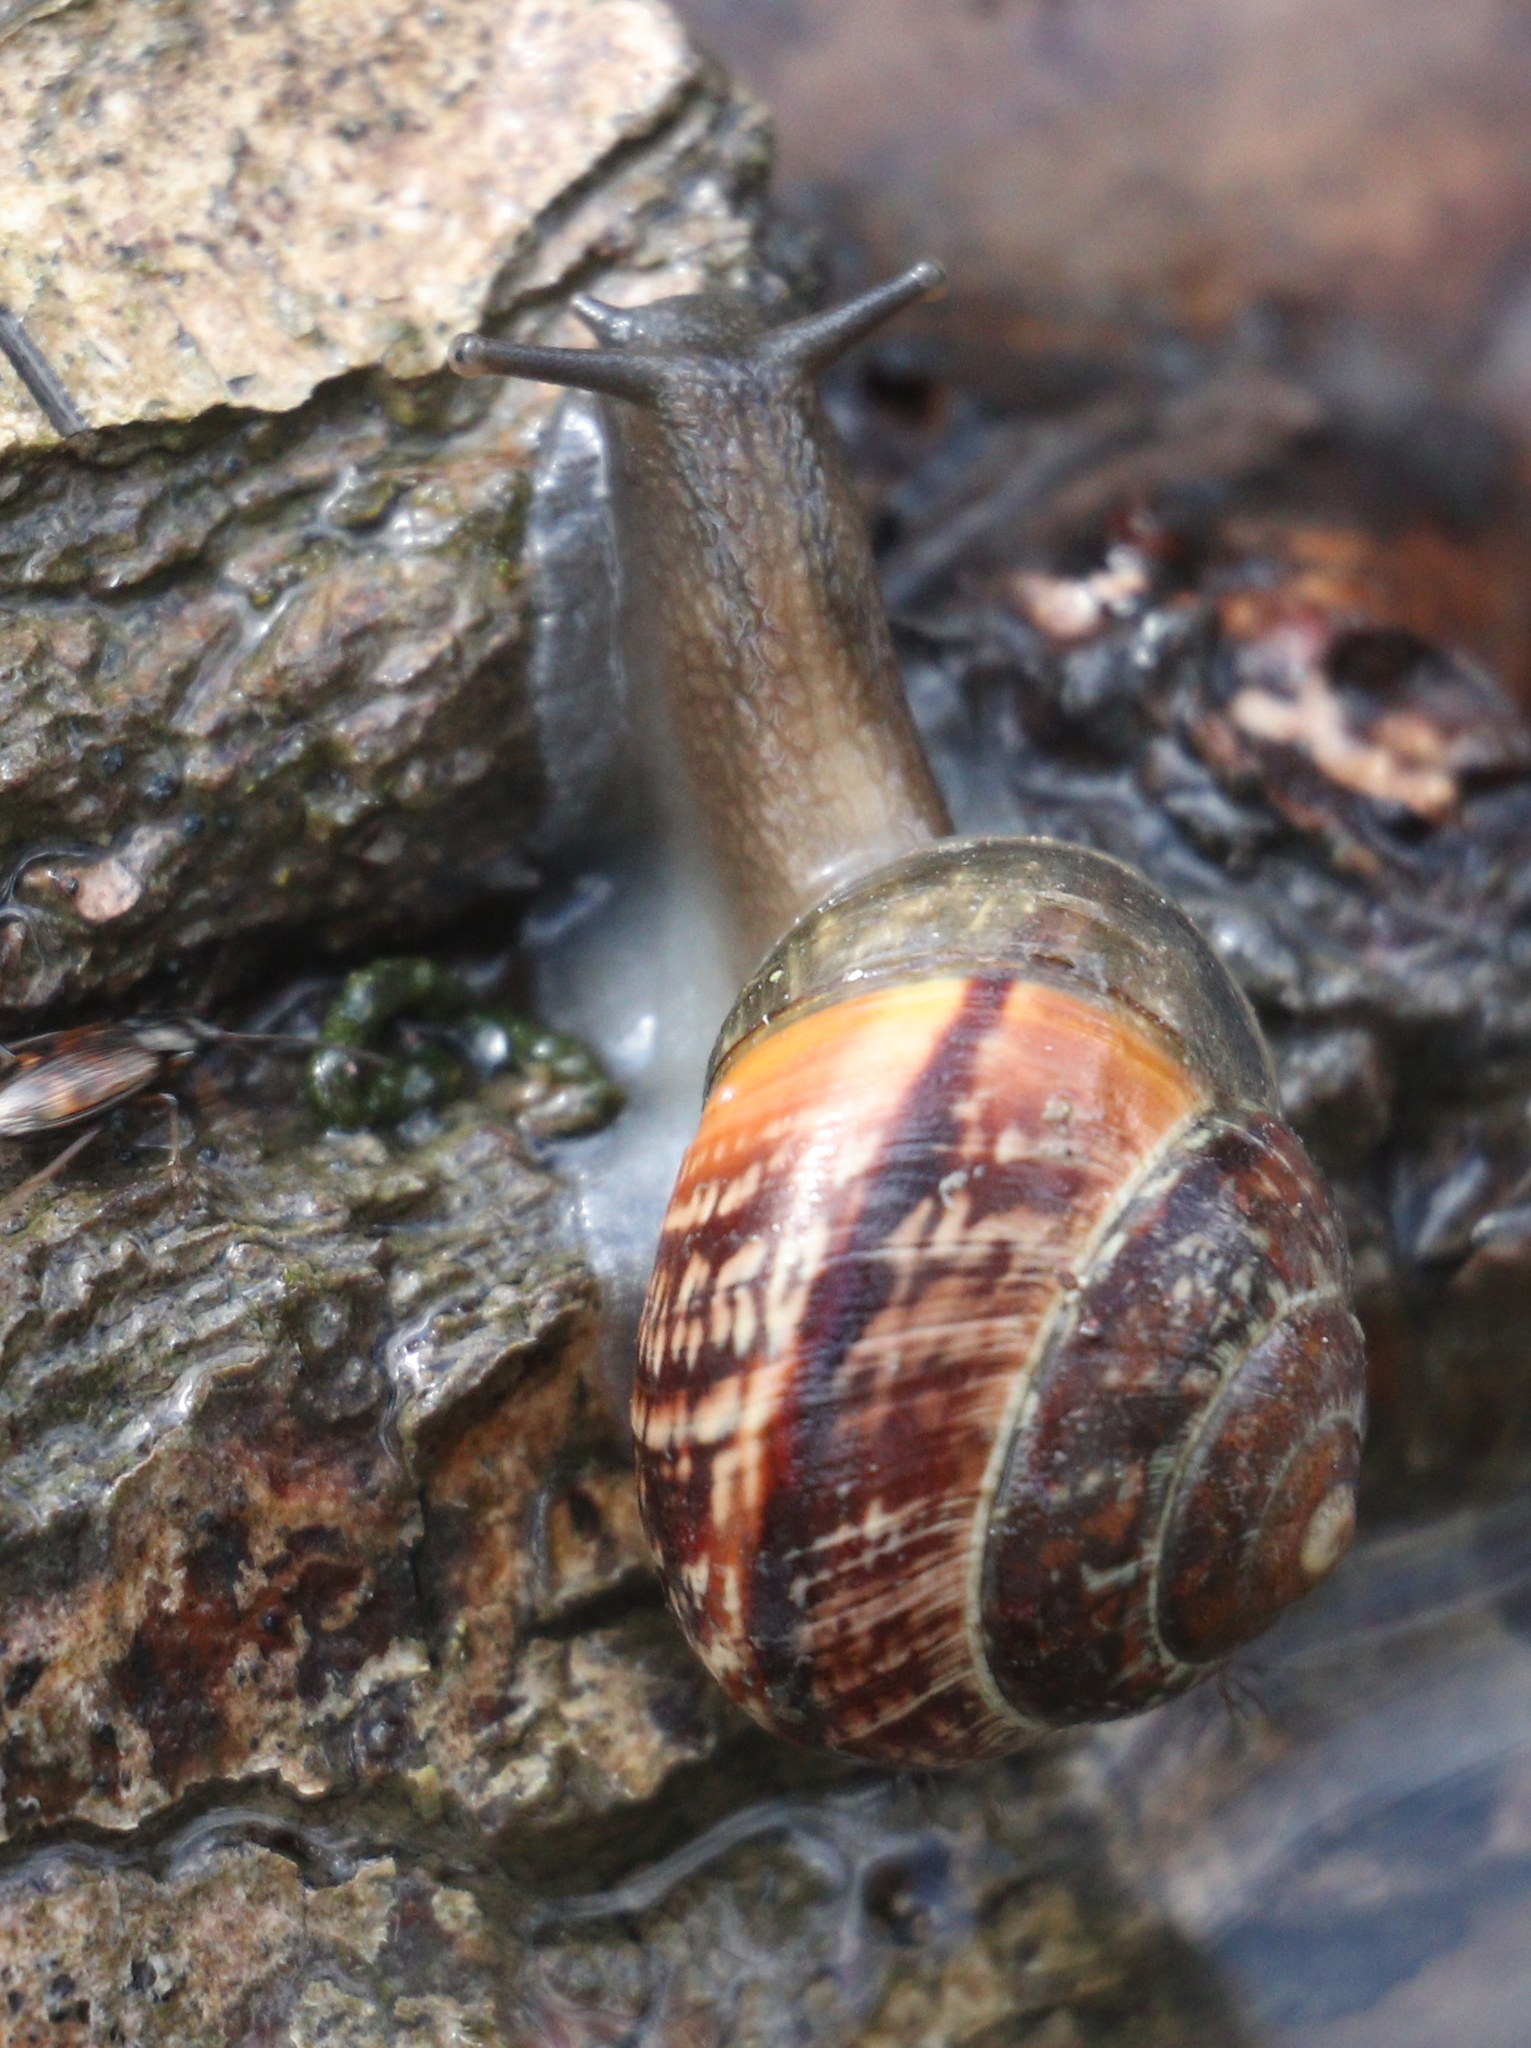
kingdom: Animalia
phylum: Mollusca
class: Gastropoda
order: Stylommatophora
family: Helicidae
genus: Arianta
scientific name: Arianta arbustorum
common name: Copse snail
